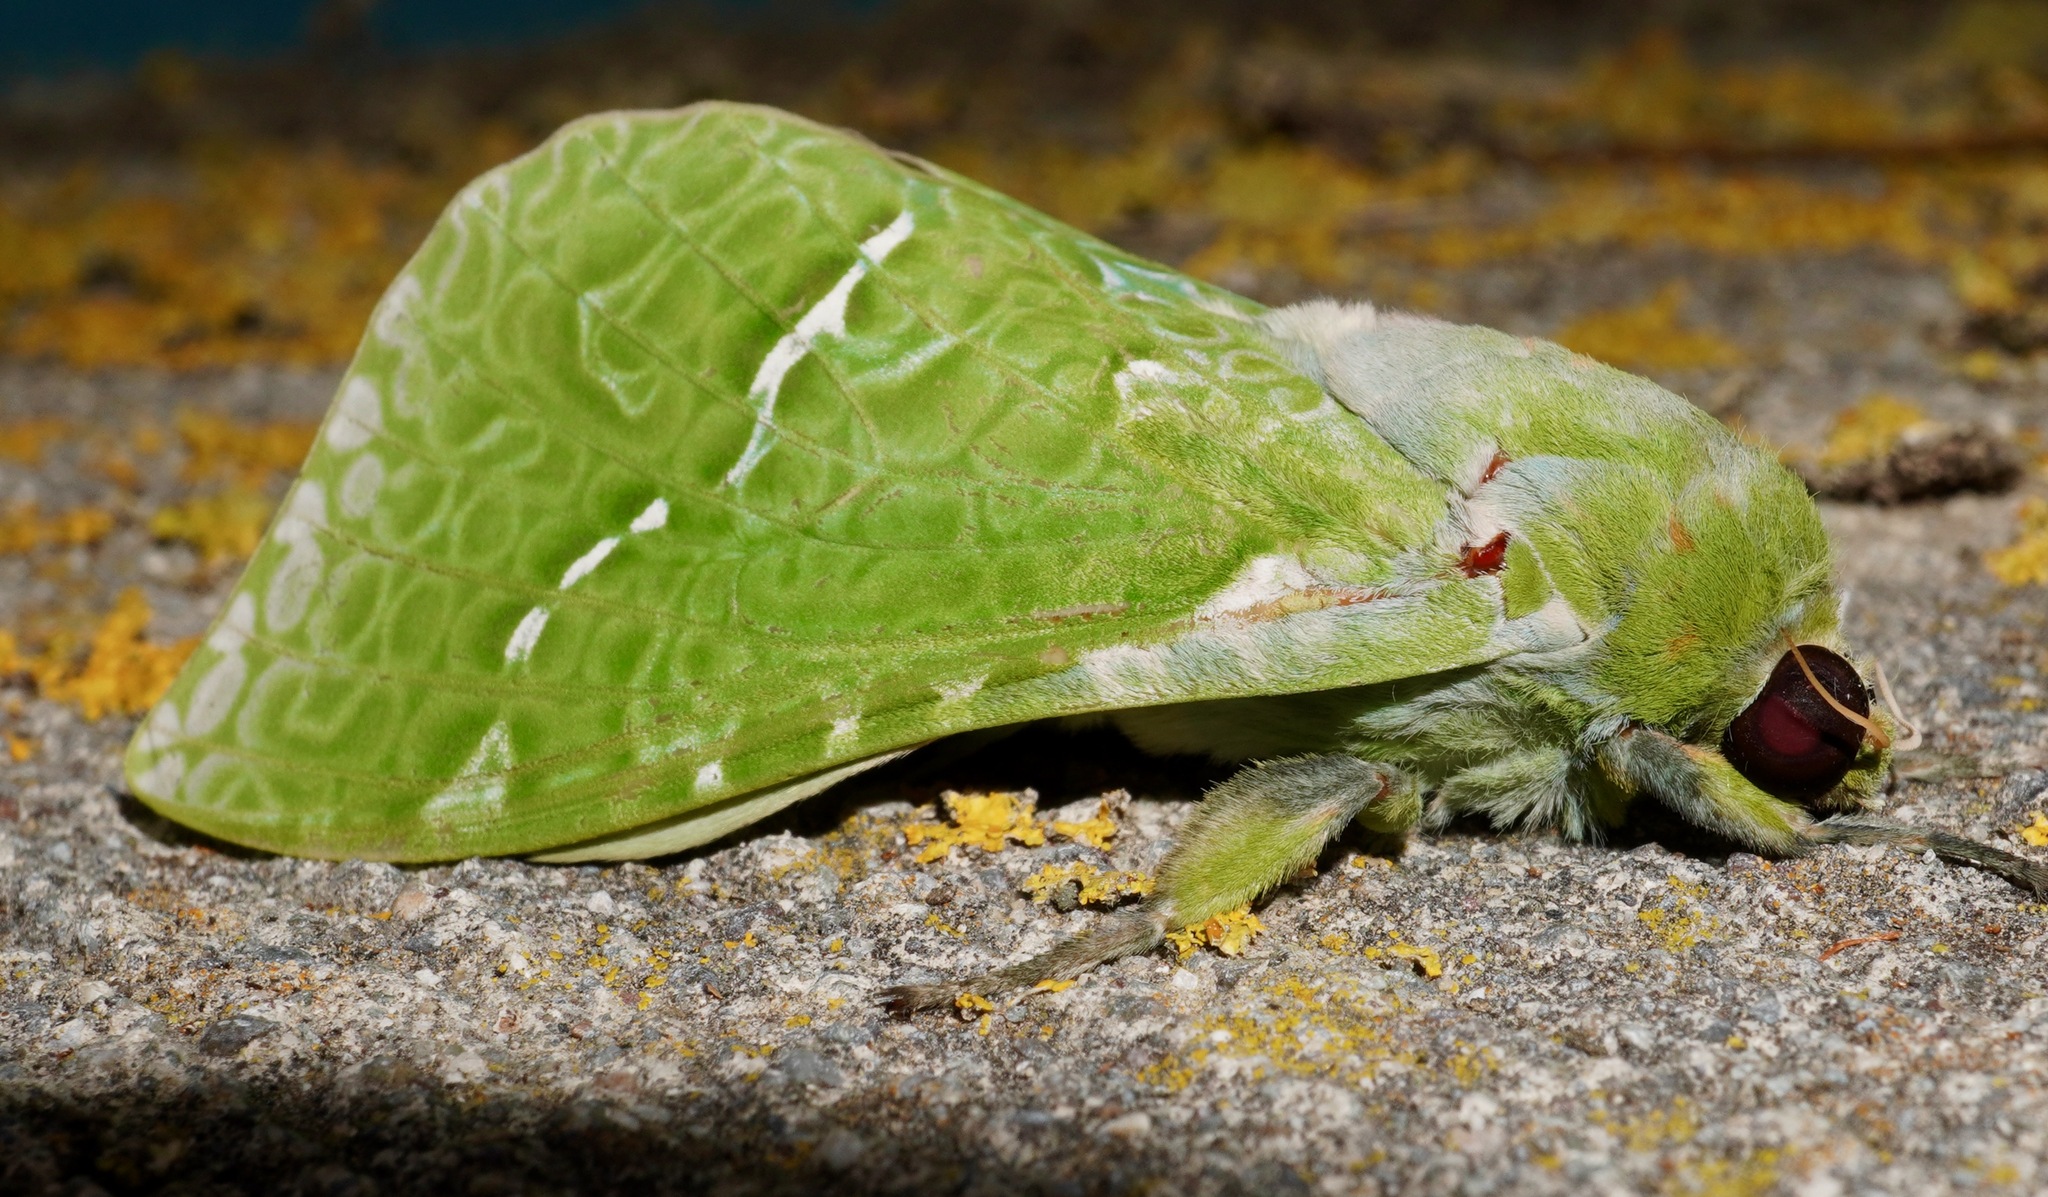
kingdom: Animalia
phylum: Arthropoda
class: Insecta
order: Lepidoptera
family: Hepialidae
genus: Aenetus
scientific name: Aenetus virescens
